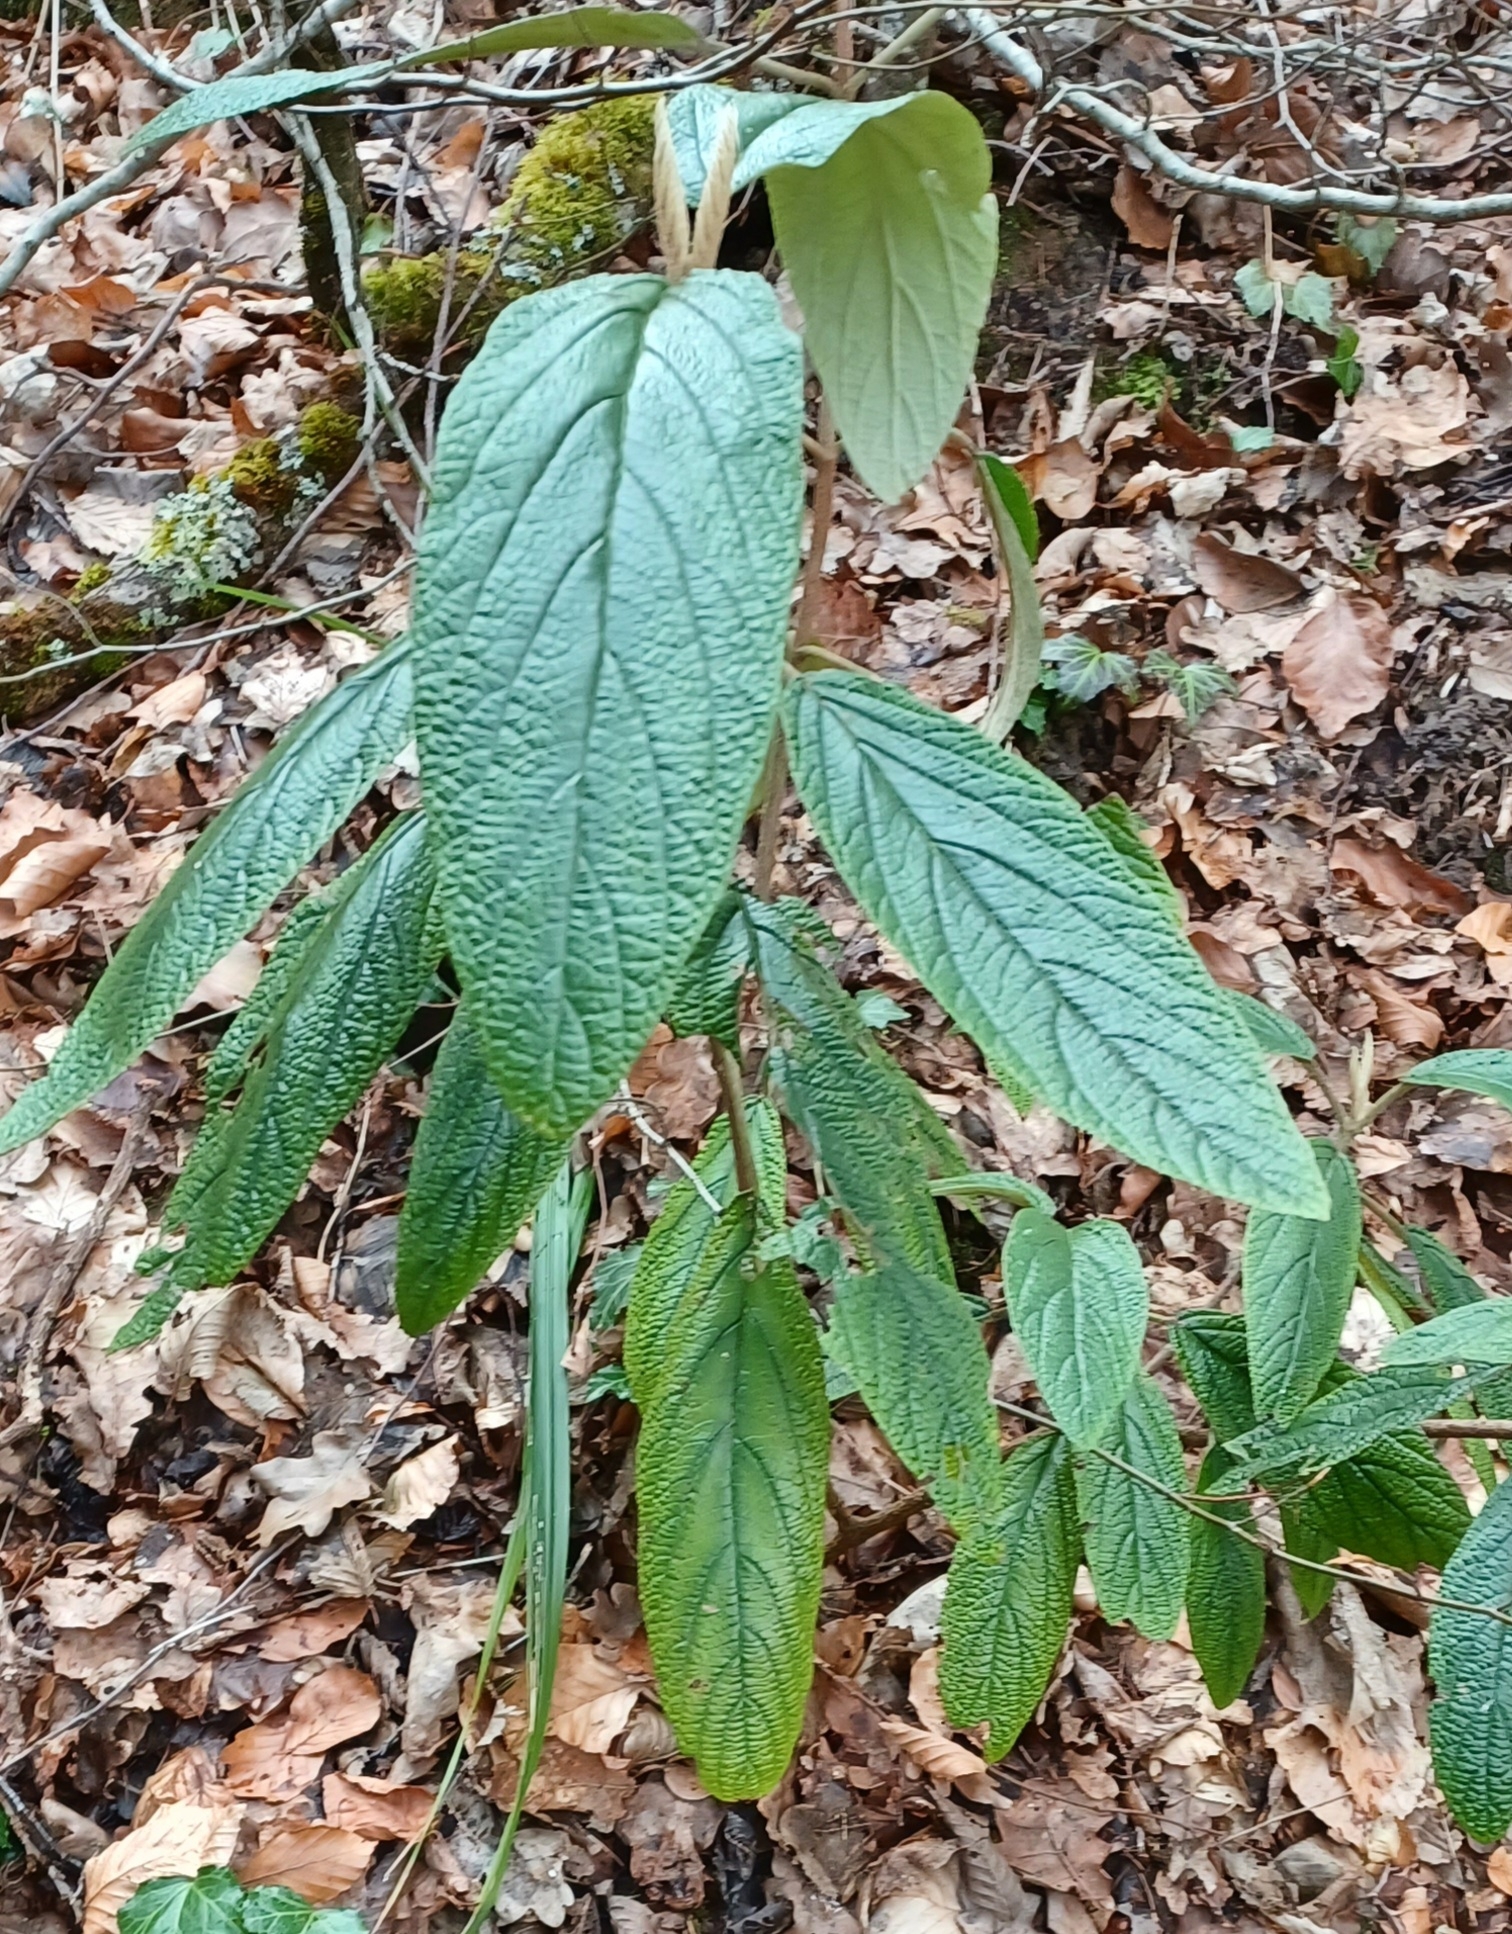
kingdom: Plantae
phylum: Tracheophyta
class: Magnoliopsida
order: Dipsacales
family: Viburnaceae
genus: Viburnum
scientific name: Viburnum rhytidophyllum
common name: Wrinkled viburnum
